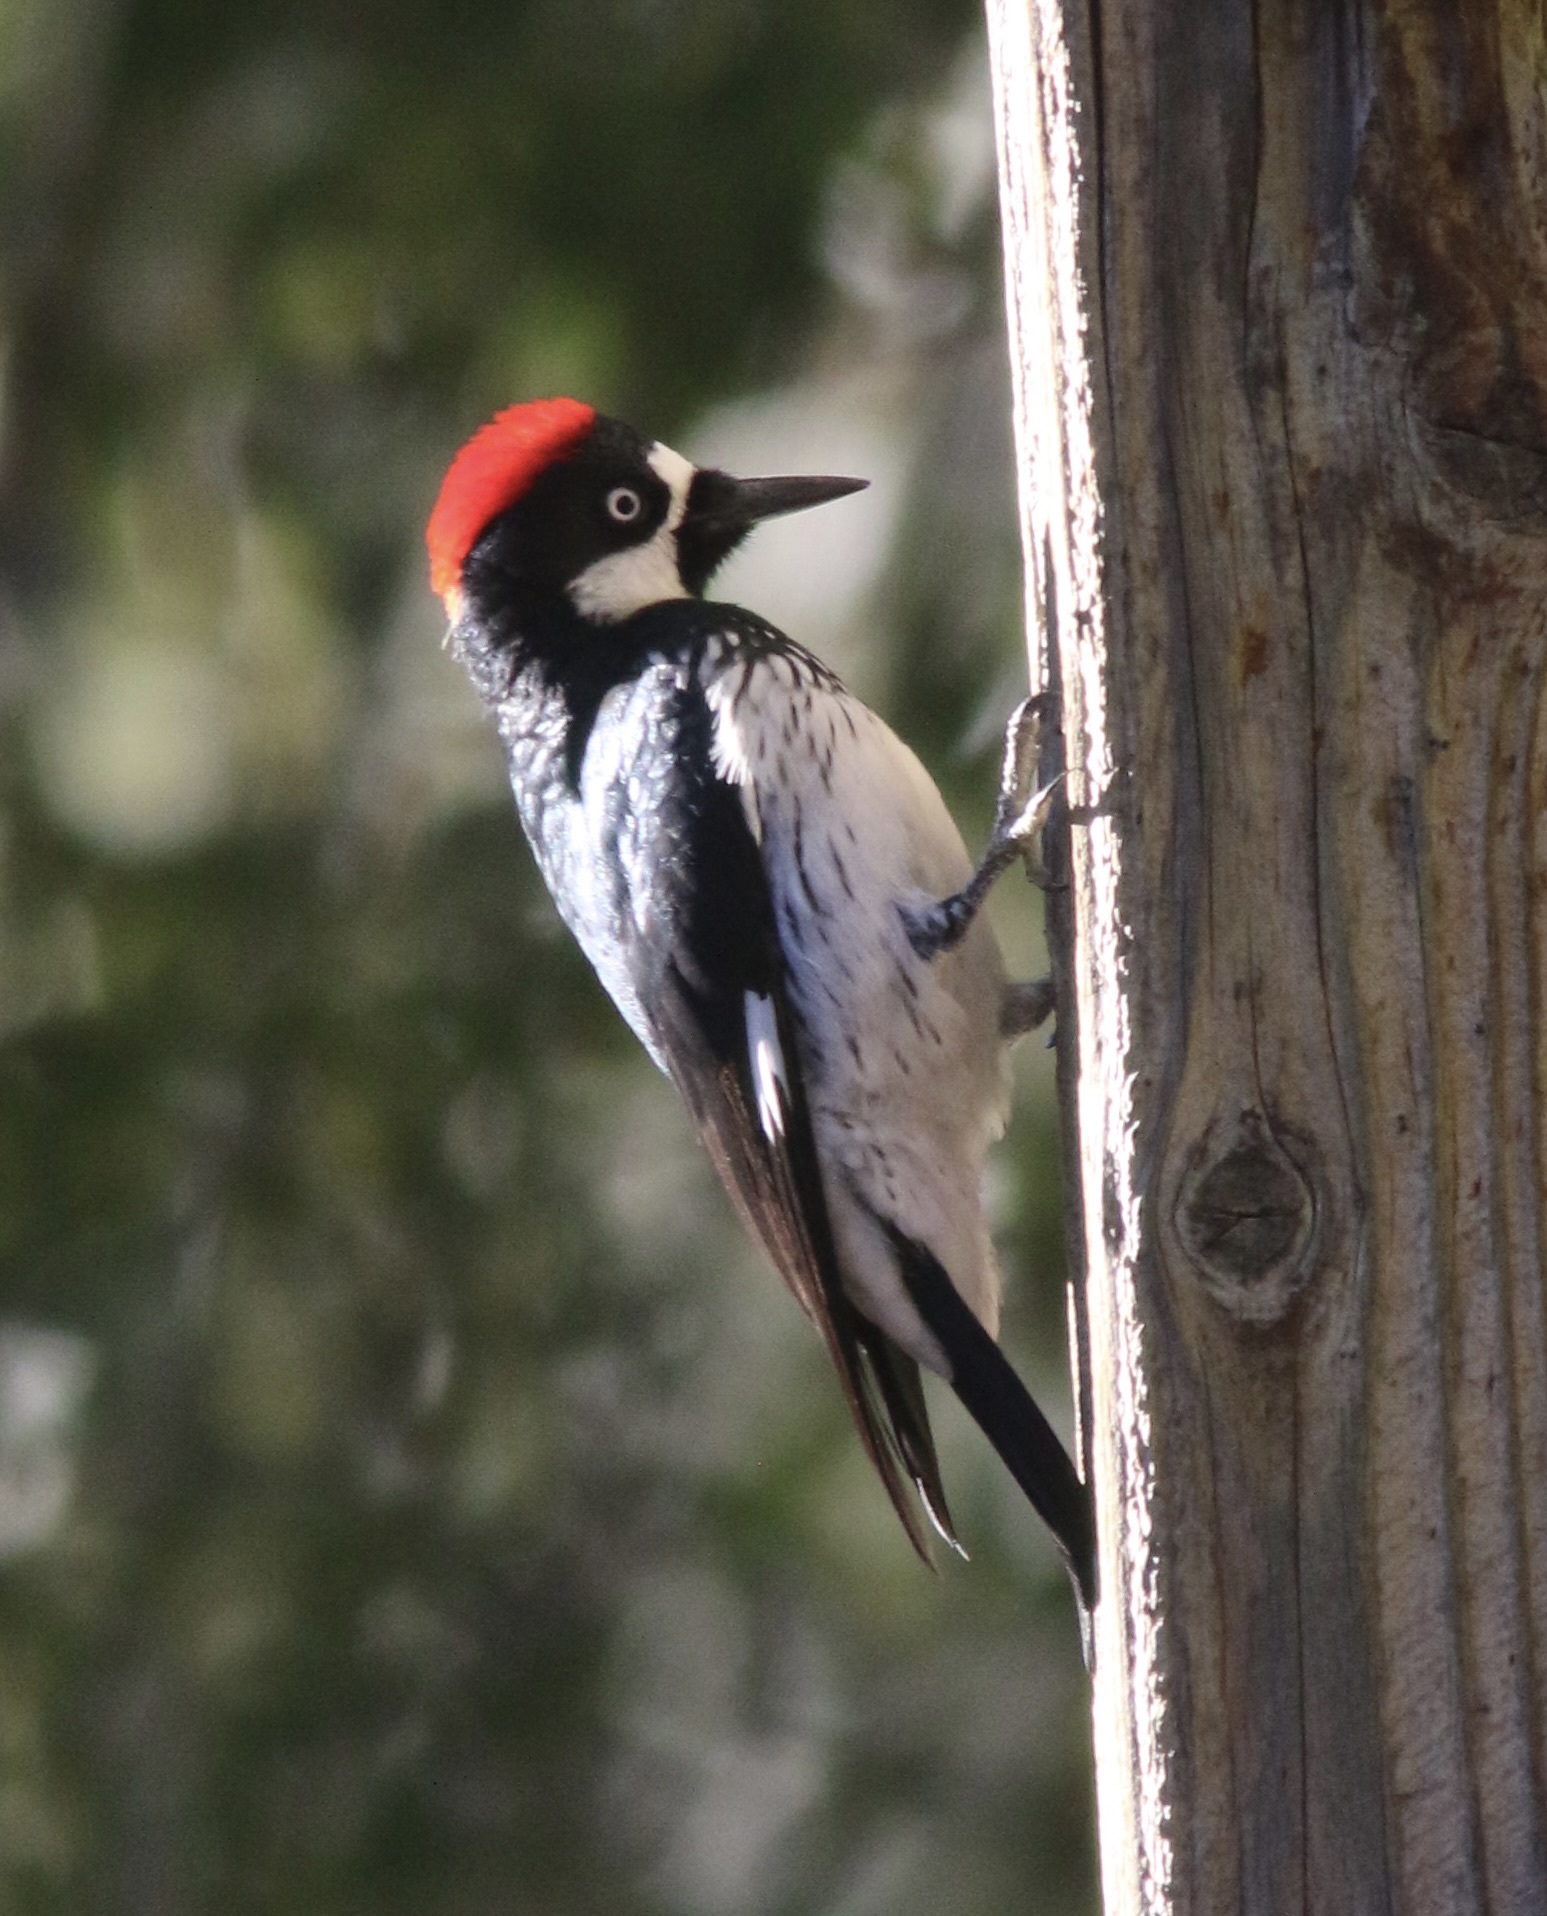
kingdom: Animalia
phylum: Chordata
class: Aves
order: Piciformes
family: Picidae
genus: Melanerpes
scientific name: Melanerpes formicivorus
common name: Acorn woodpecker
